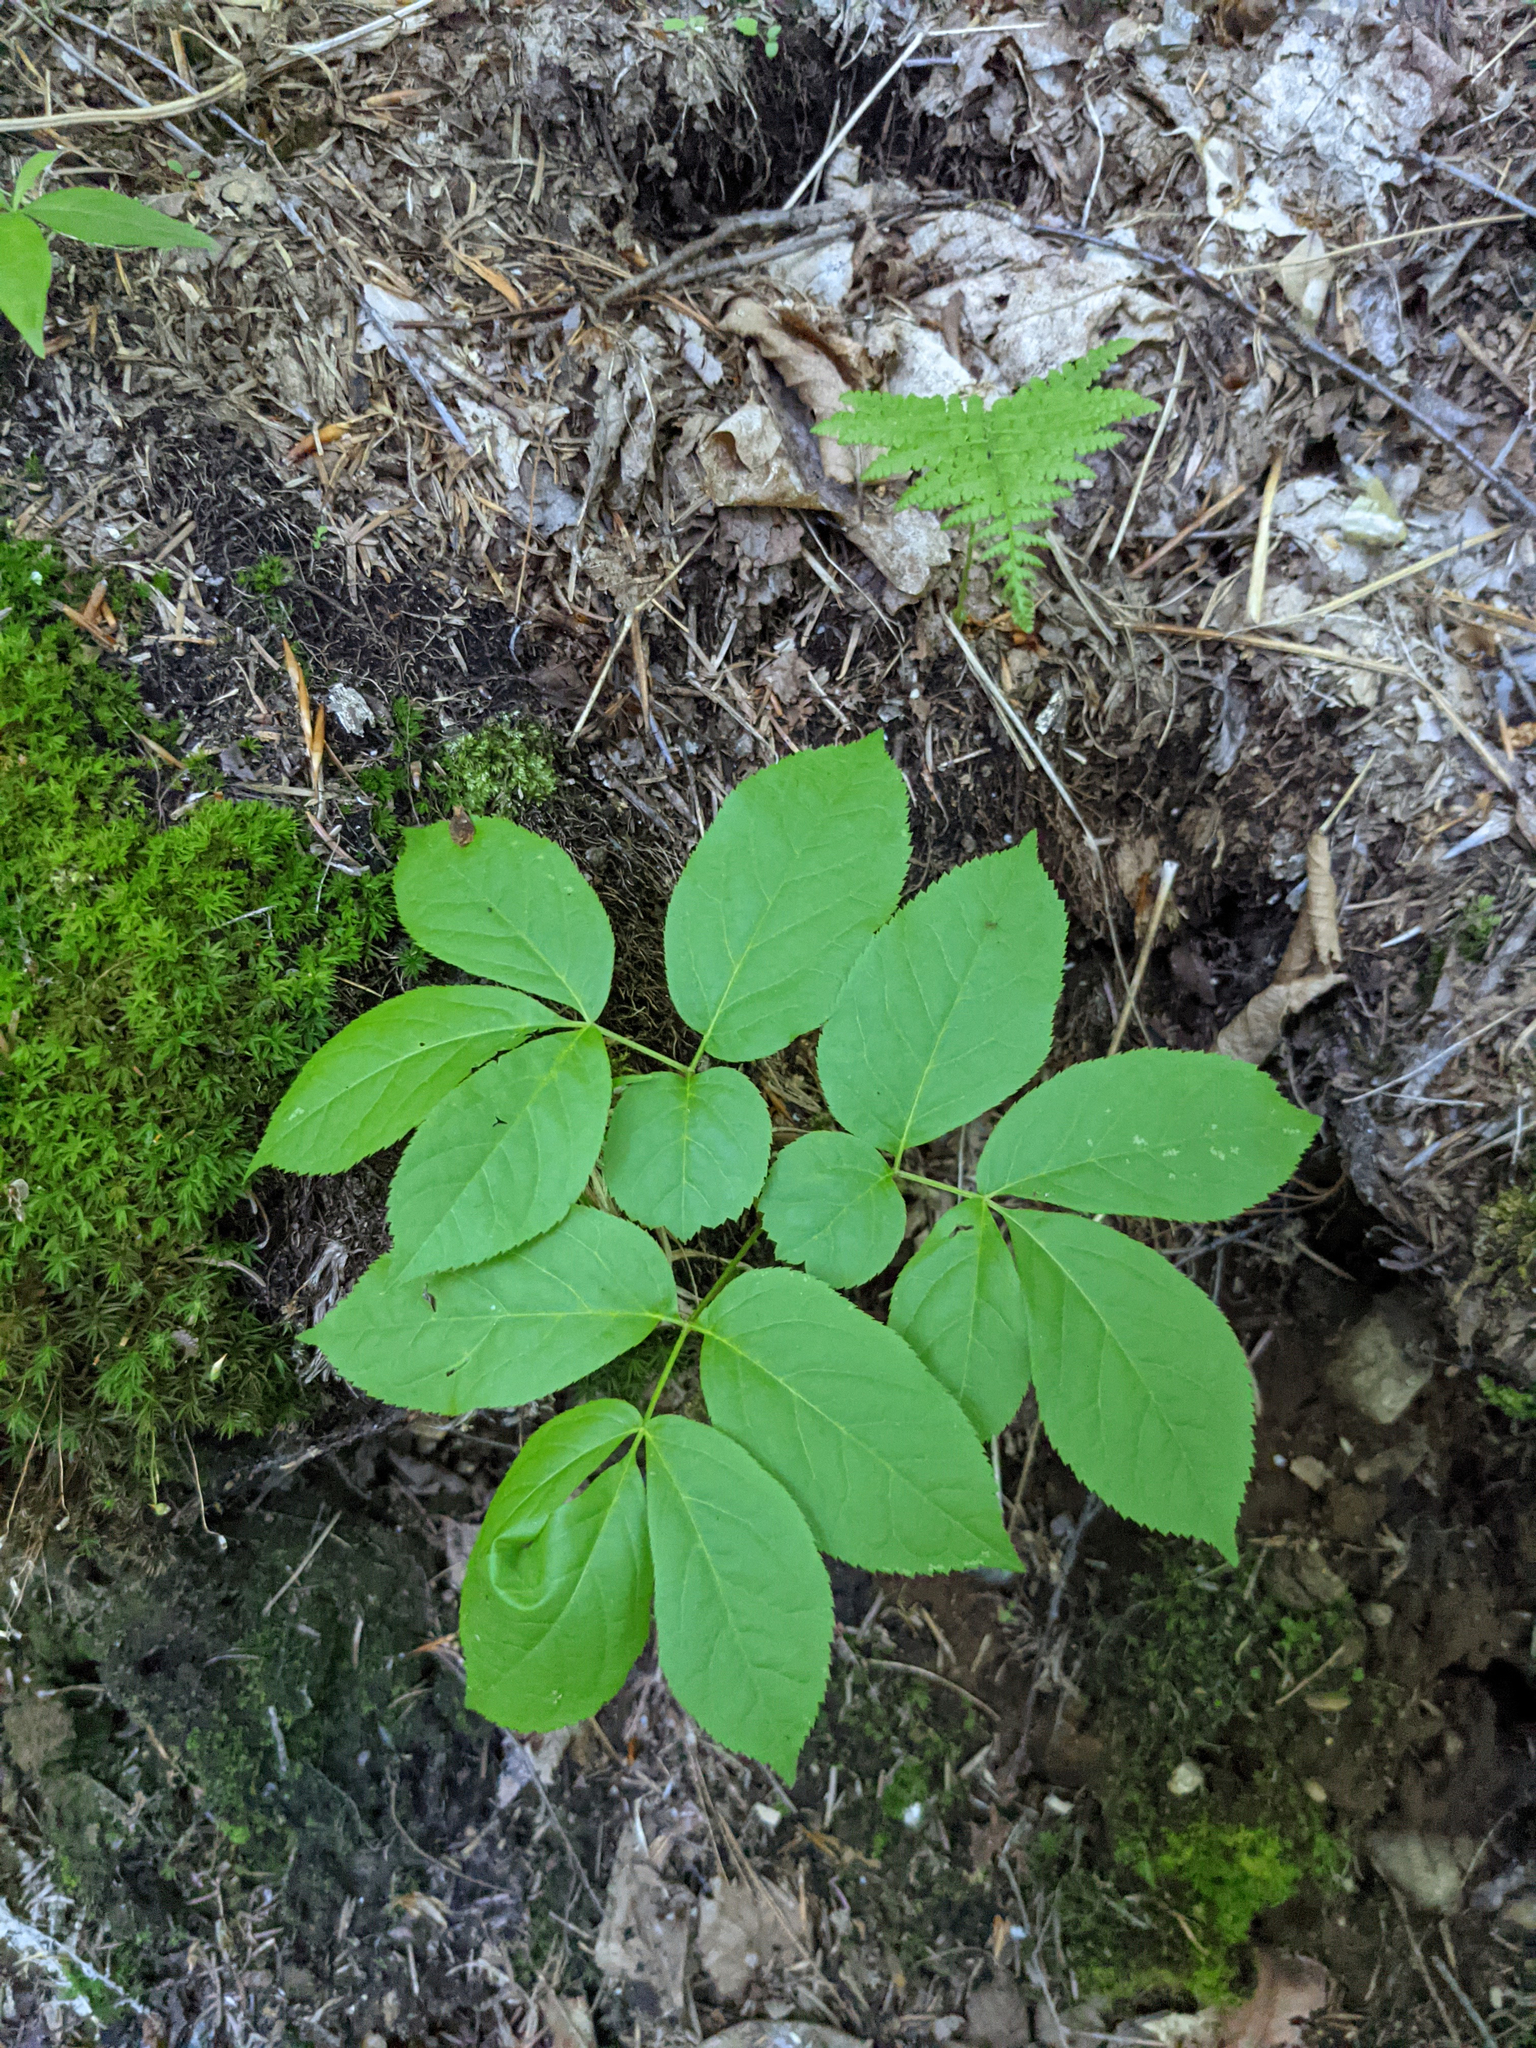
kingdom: Plantae
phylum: Tracheophyta
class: Magnoliopsida
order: Apiales
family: Araliaceae
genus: Aralia
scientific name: Aralia nudicaulis
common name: Wild sarsaparilla
